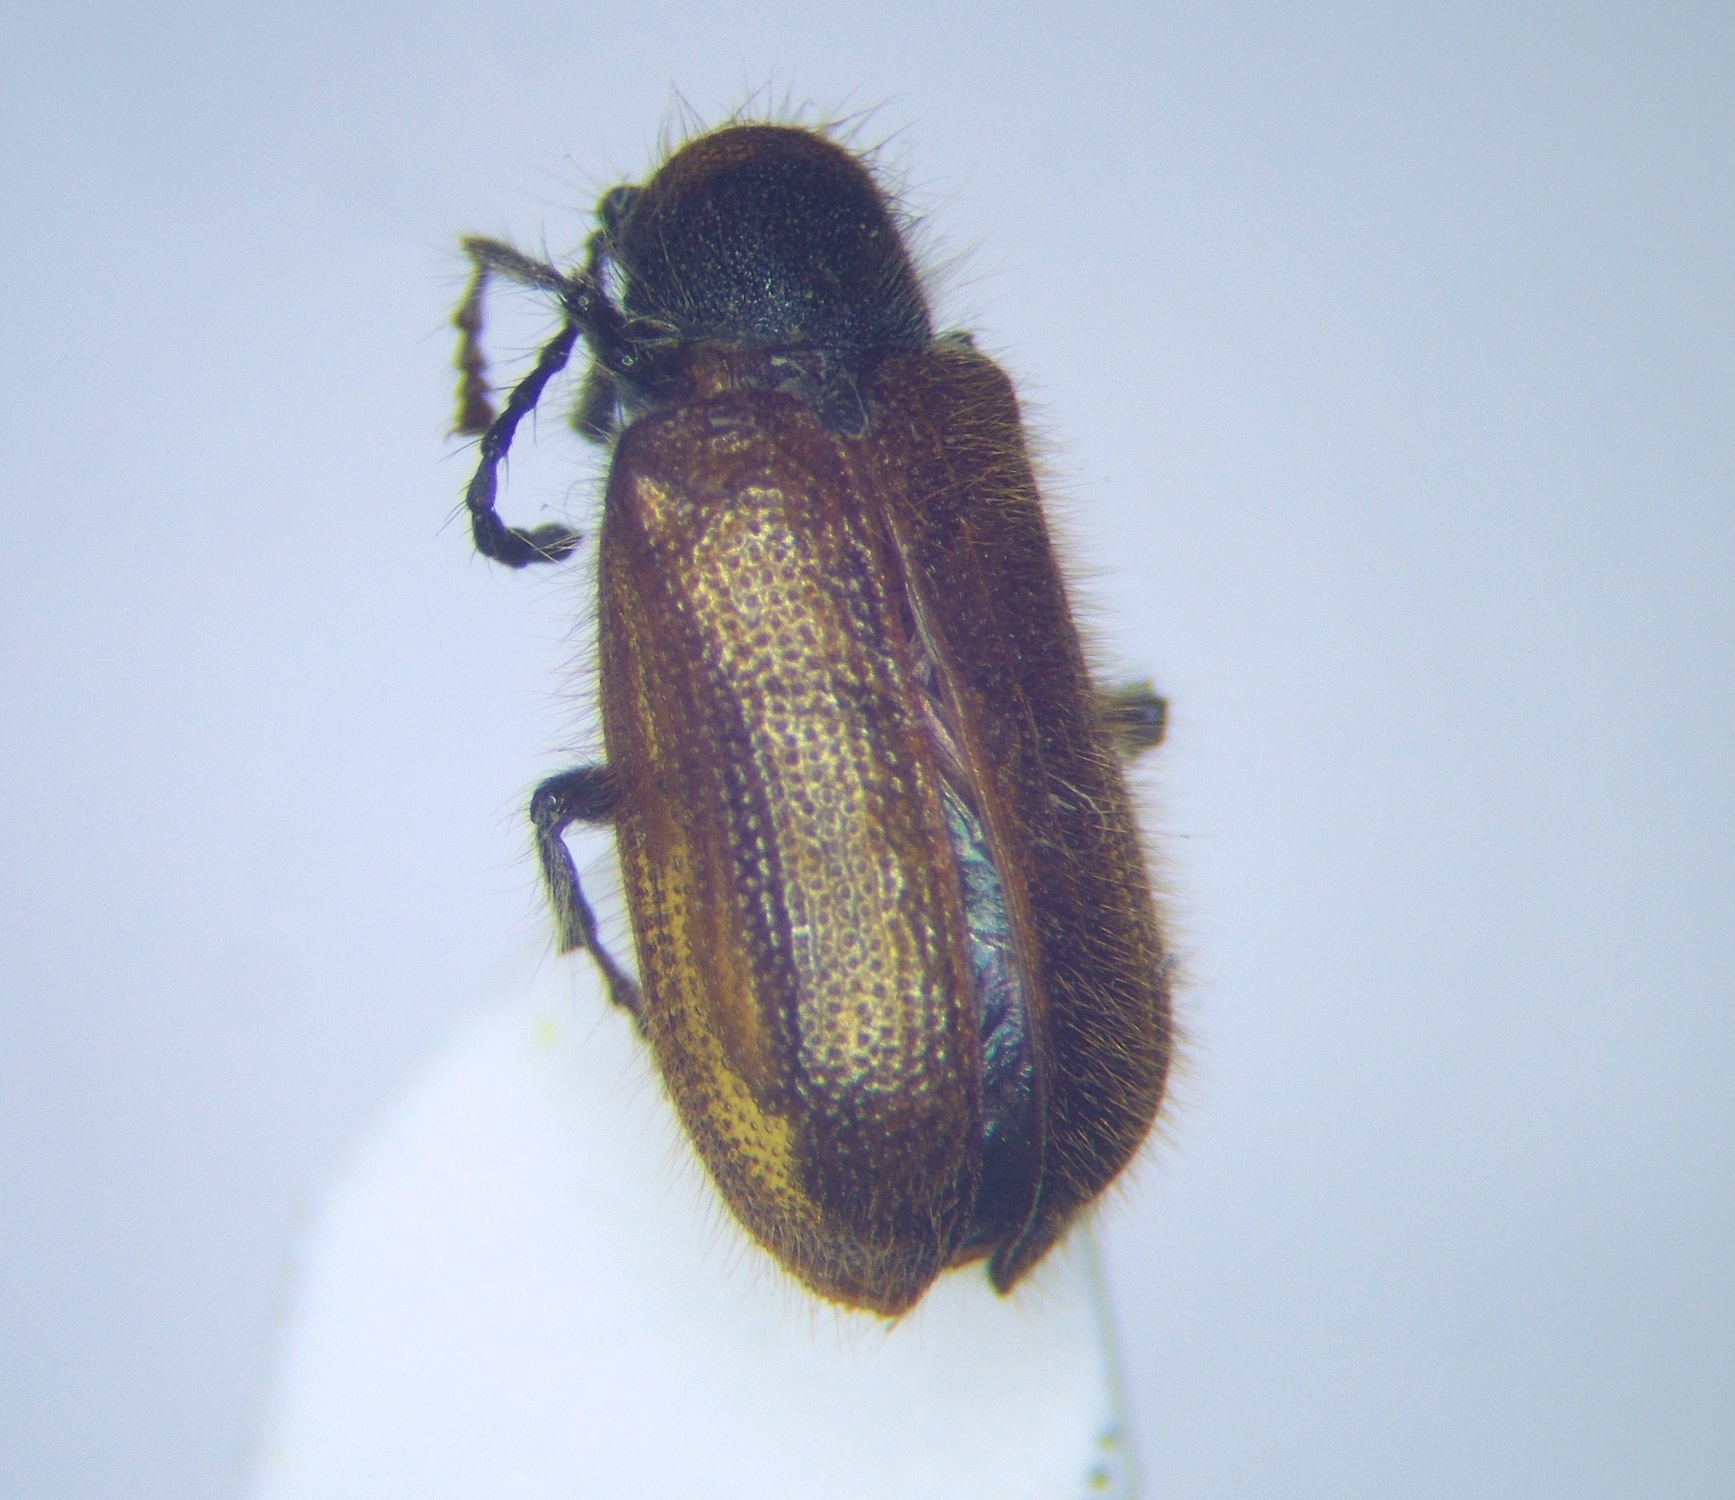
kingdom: Animalia
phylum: Arthropoda
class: Insecta
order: Coleoptera
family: Anobiidae
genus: Hedobia
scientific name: Hedobia pubescens
